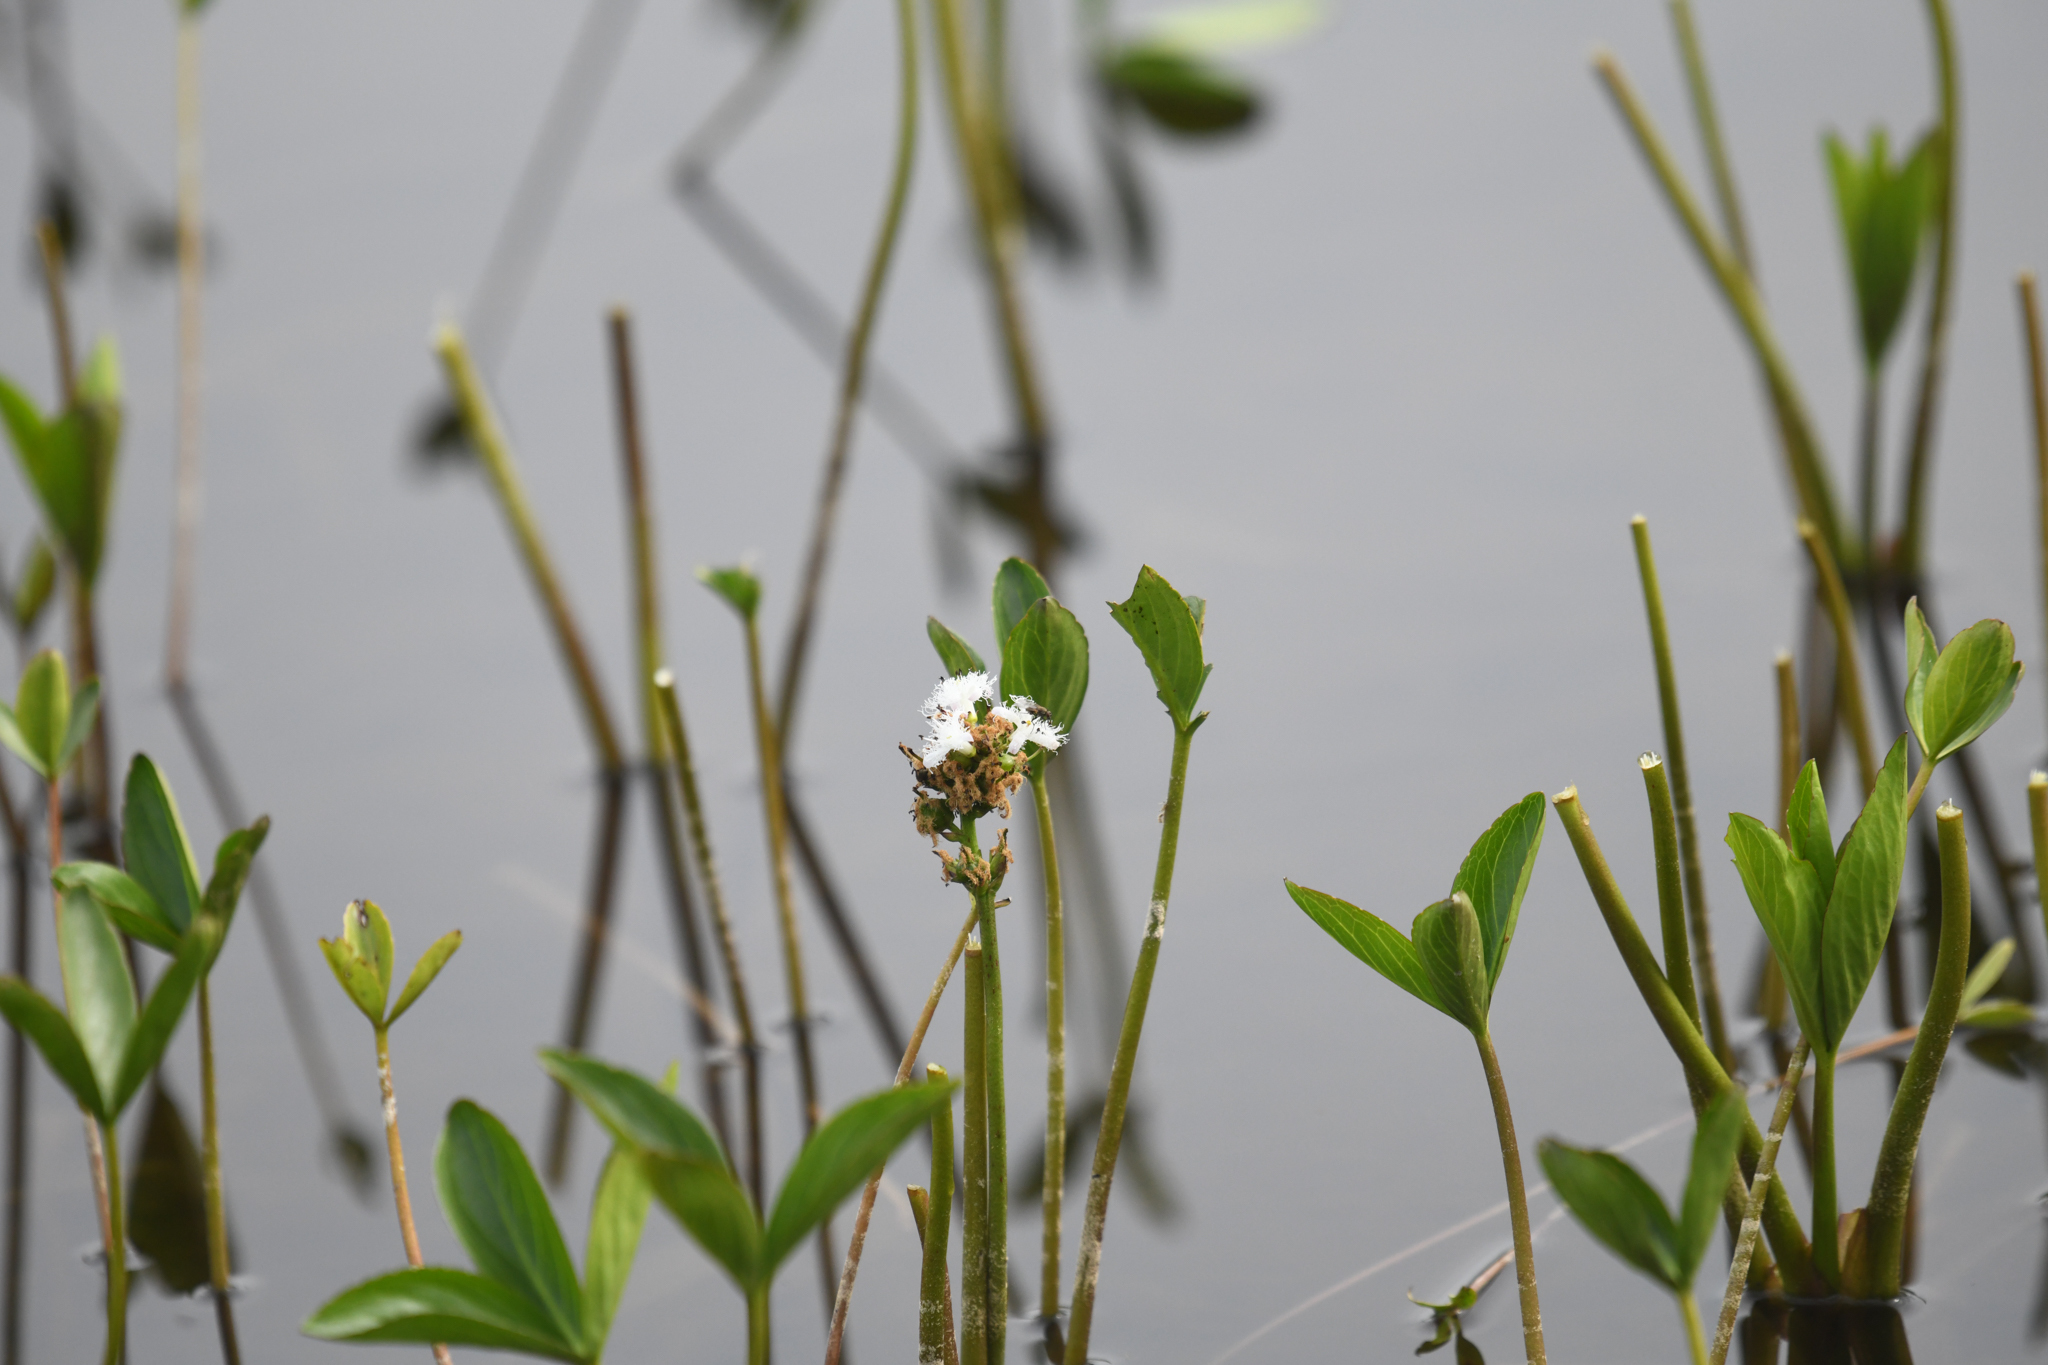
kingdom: Plantae
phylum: Tracheophyta
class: Magnoliopsida
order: Asterales
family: Menyanthaceae
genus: Menyanthes
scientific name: Menyanthes trifoliata
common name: Bogbean
